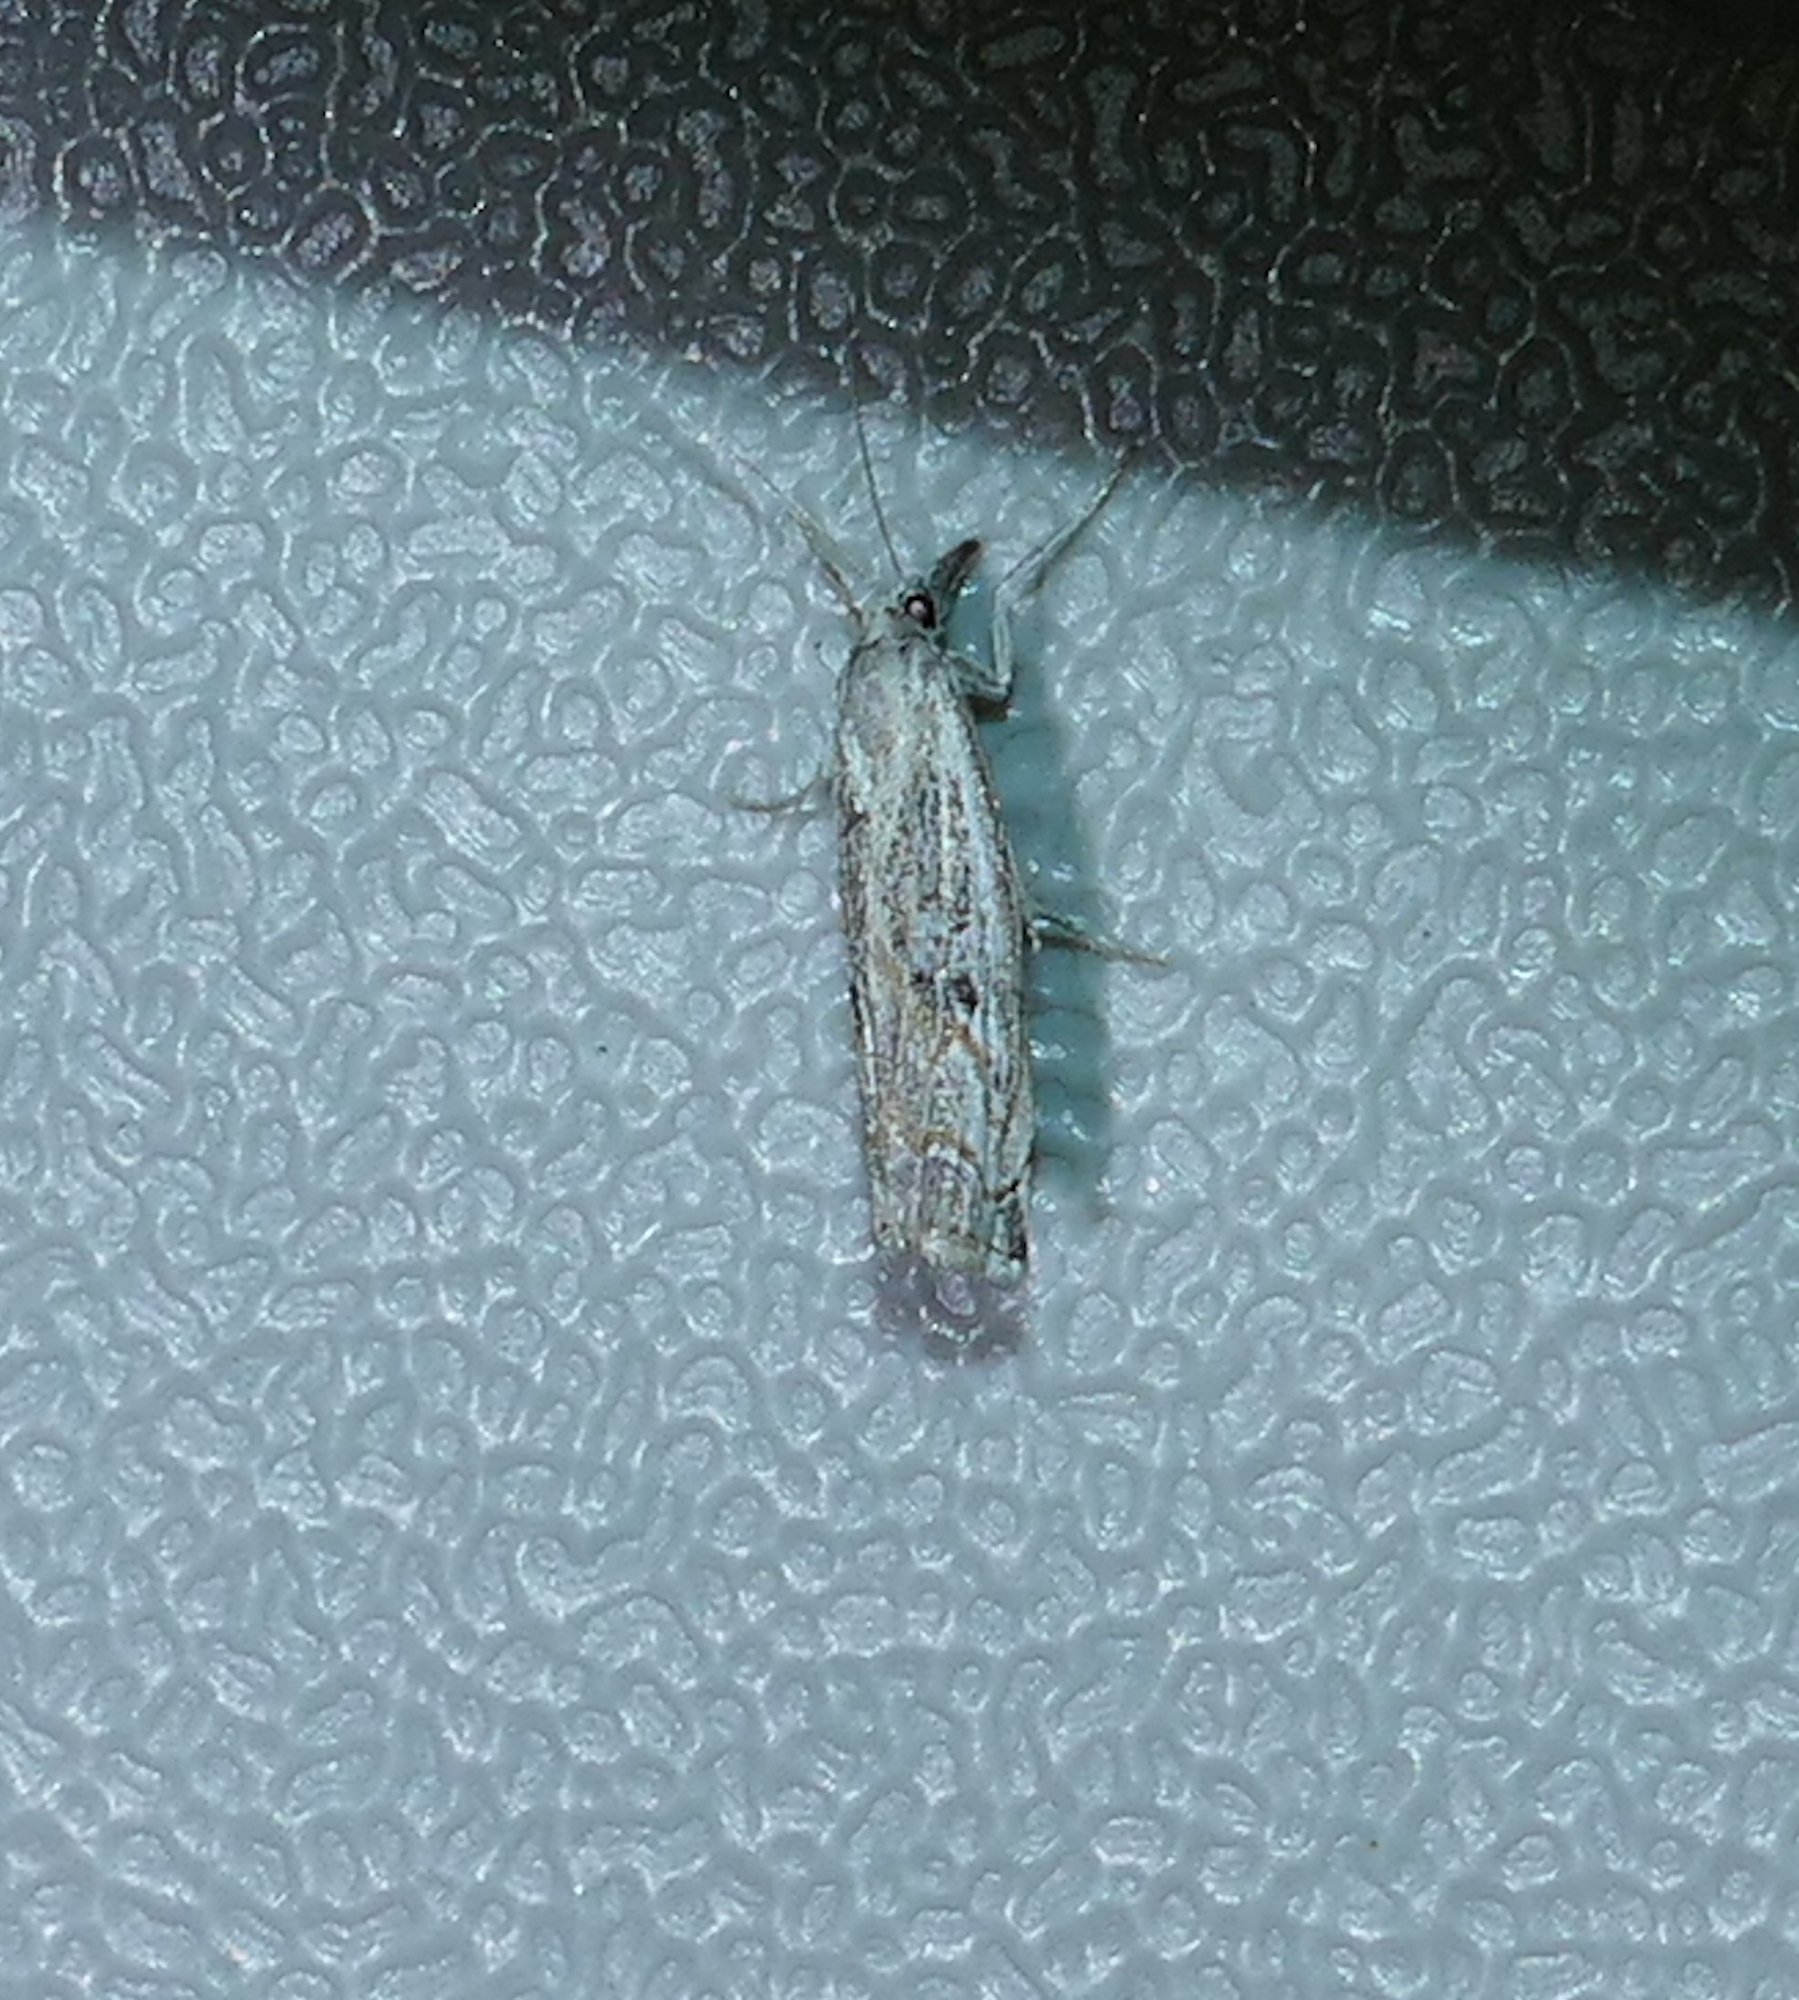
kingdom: Animalia
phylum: Arthropoda
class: Insecta
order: Lepidoptera
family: Crambidae
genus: La
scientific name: La
